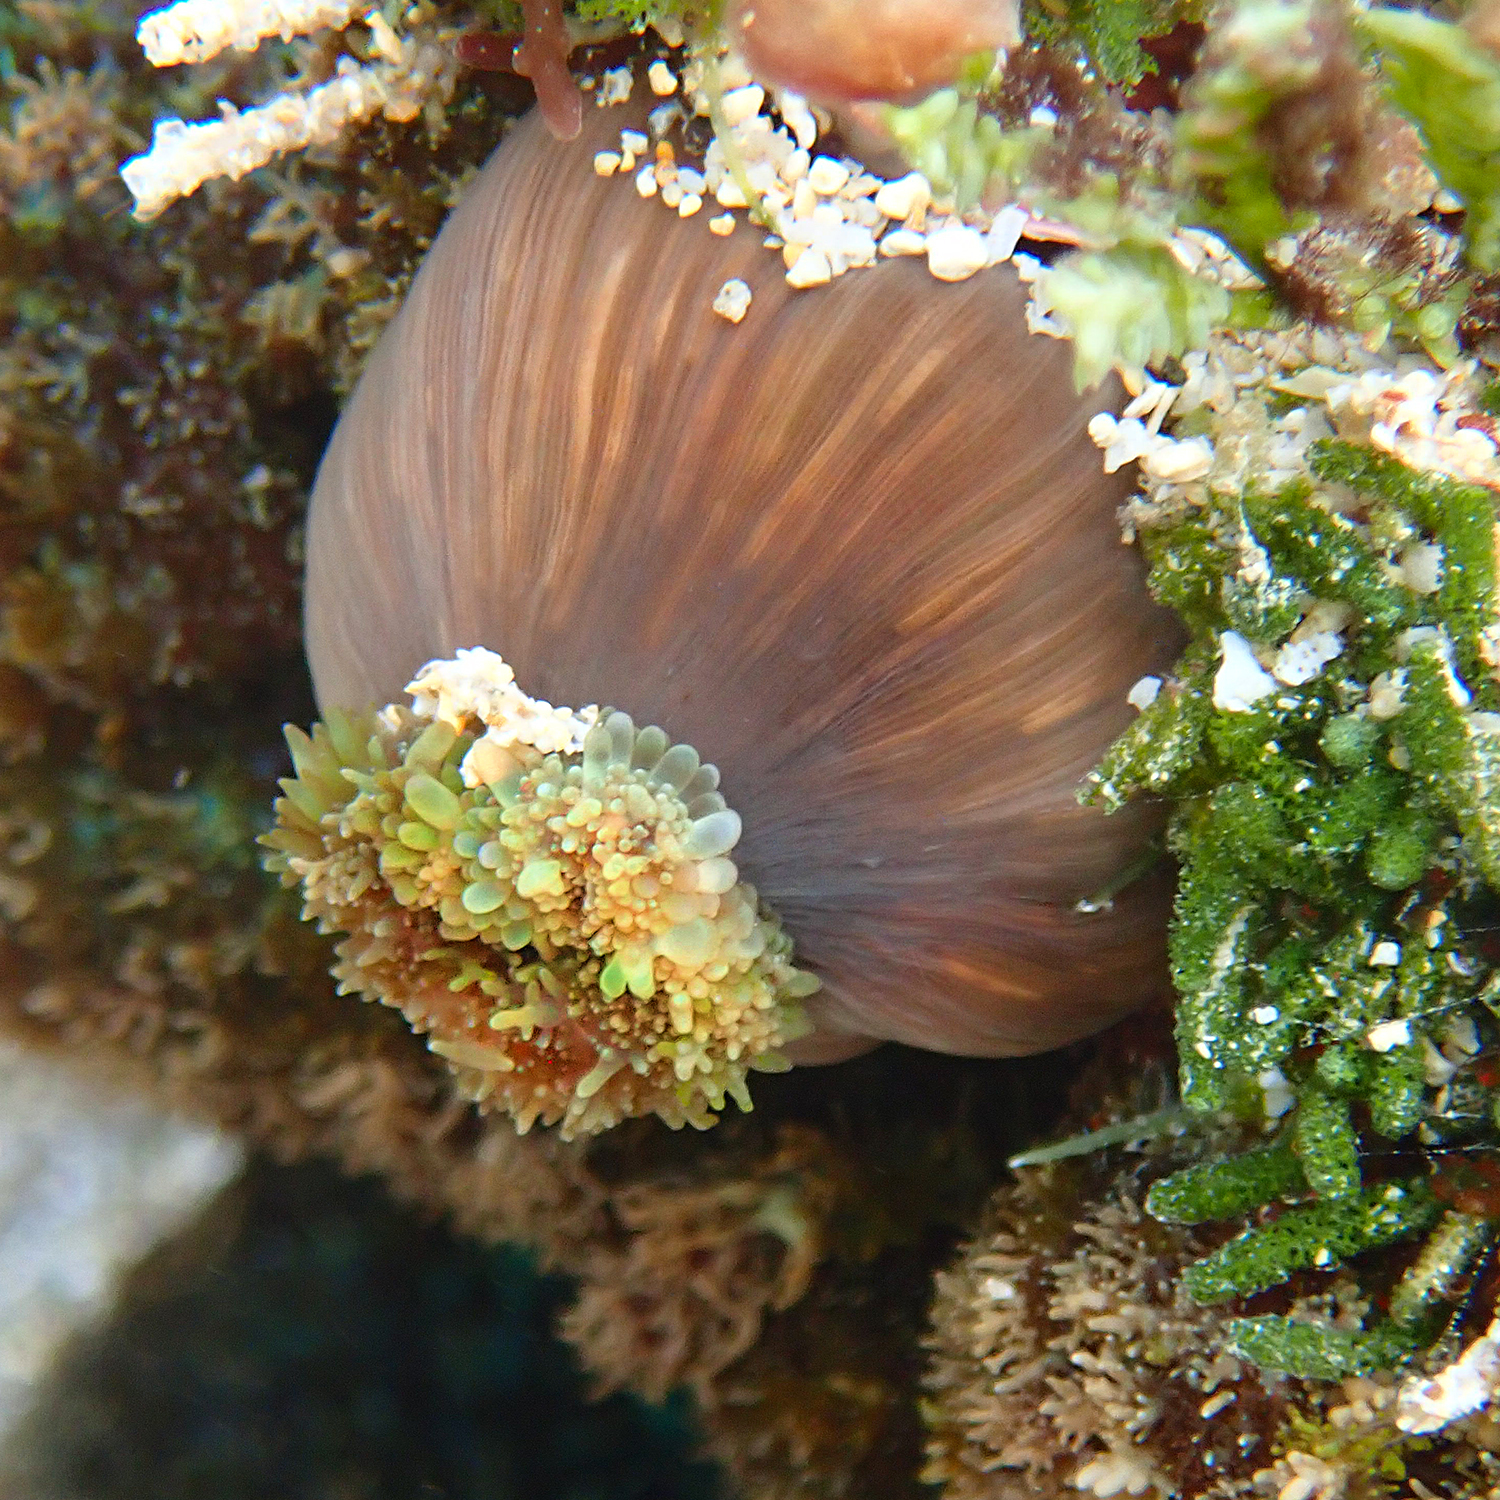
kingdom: Animalia
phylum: Cnidaria
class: Anthozoa
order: Corallimorpharia
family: Discosomidae
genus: Rhodactis
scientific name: Rhodactis rhodostoma
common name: Red-mouth mushroom anemone
